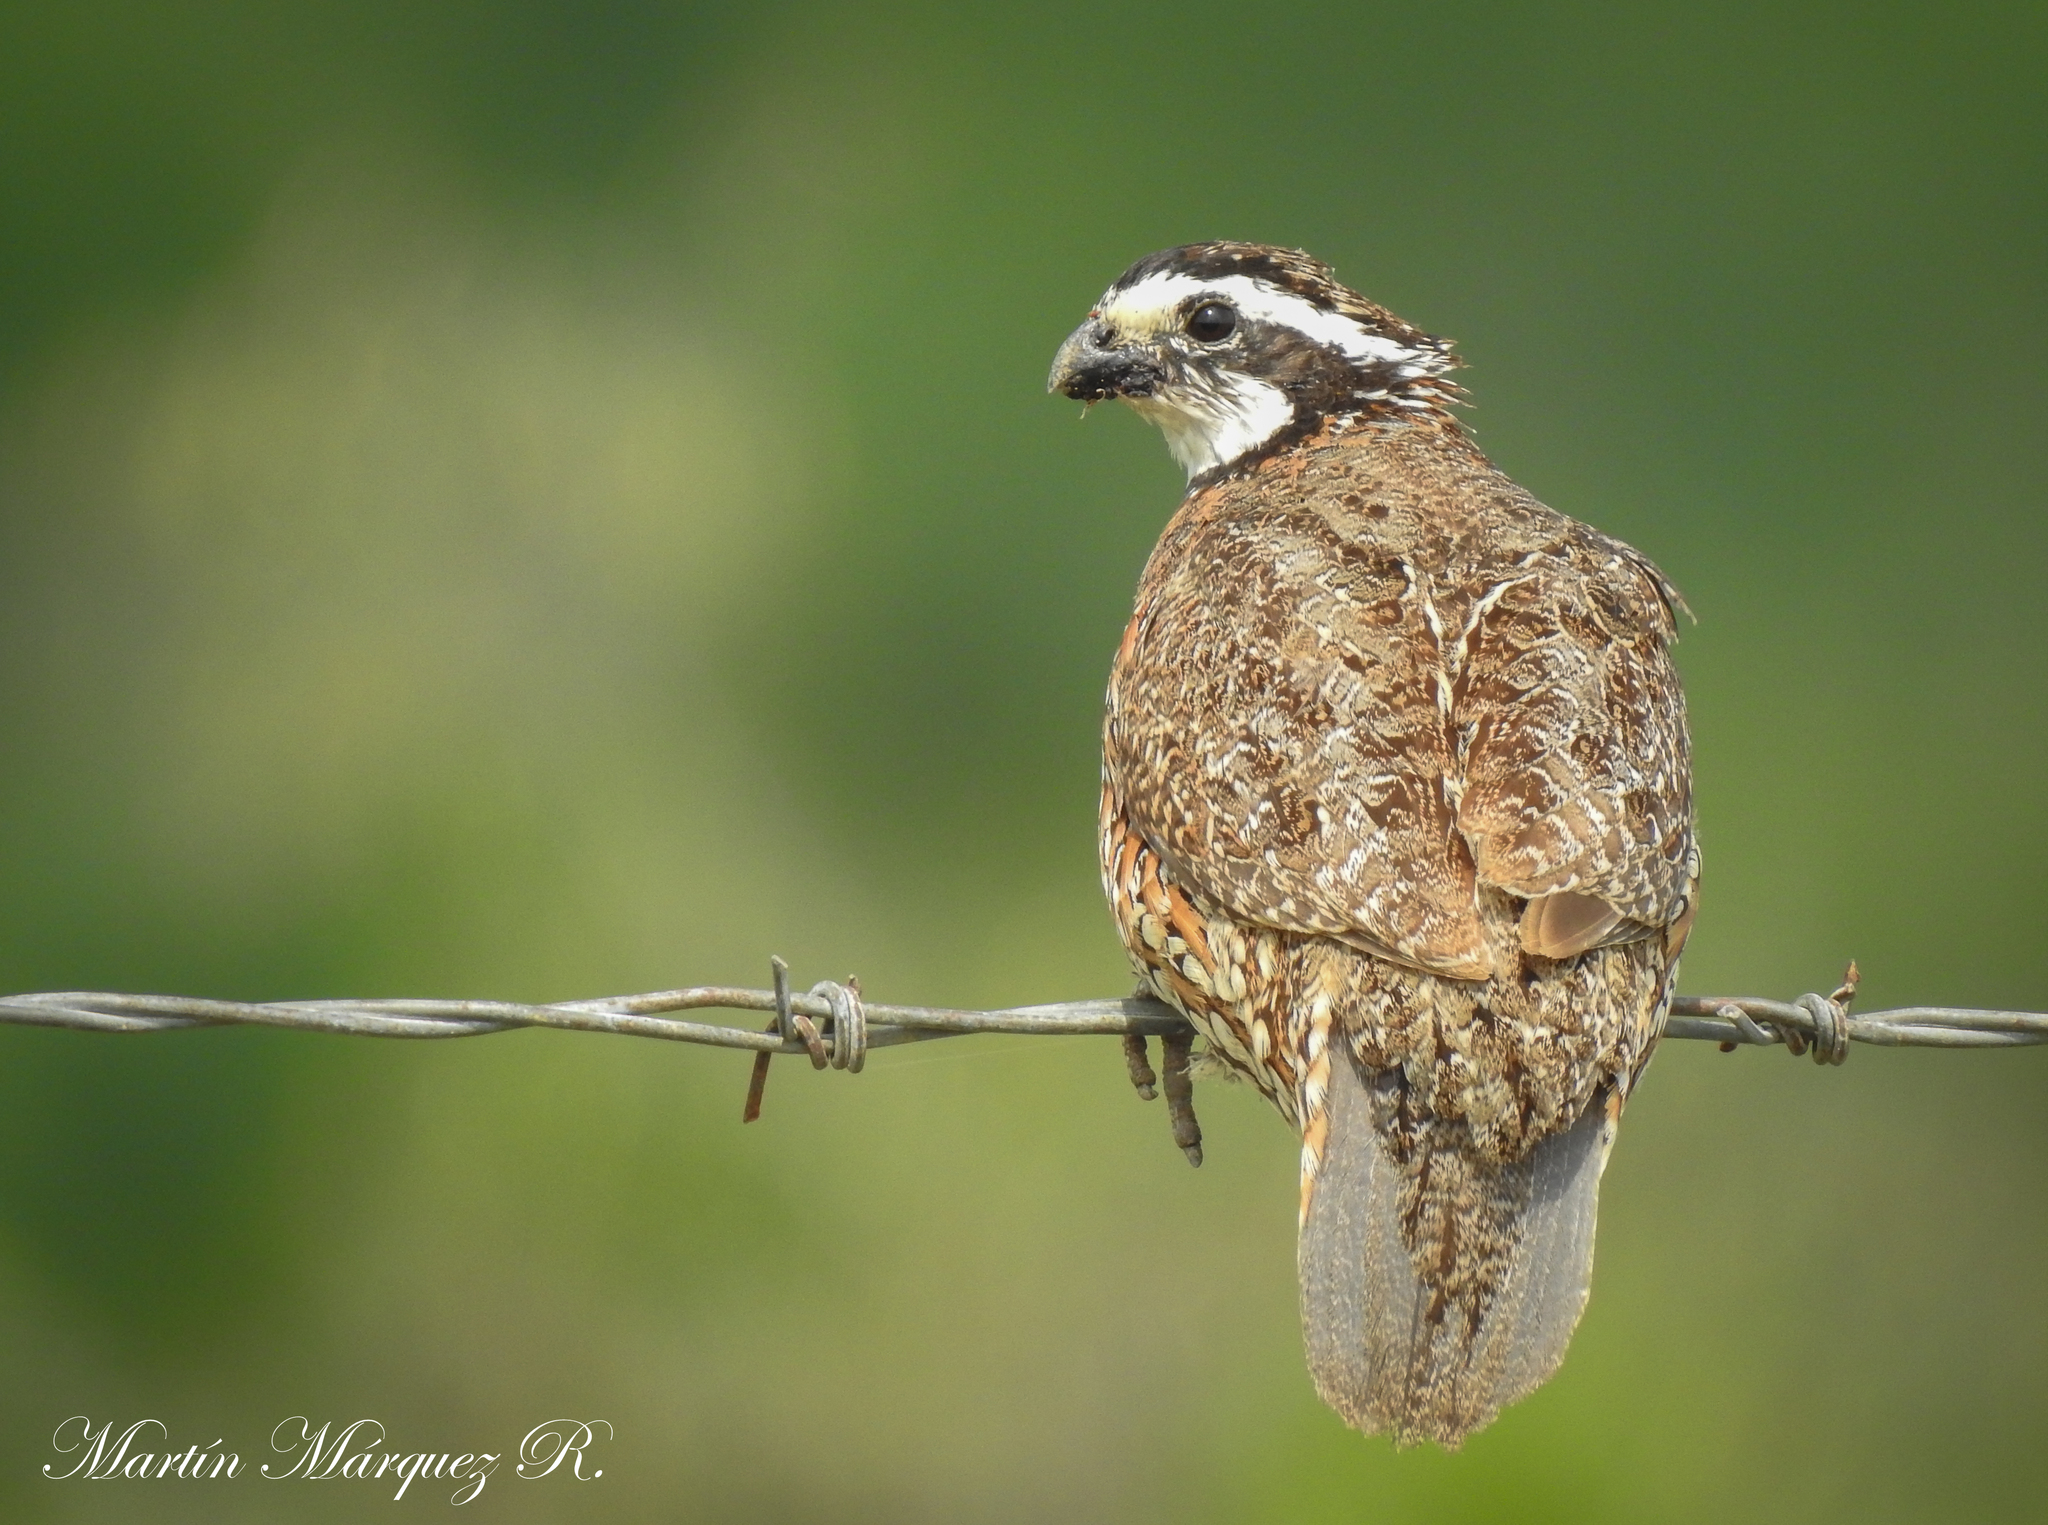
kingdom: Animalia
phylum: Chordata
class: Aves
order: Galliformes
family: Odontophoridae
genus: Colinus
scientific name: Colinus virginianus
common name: Northern bobwhite
